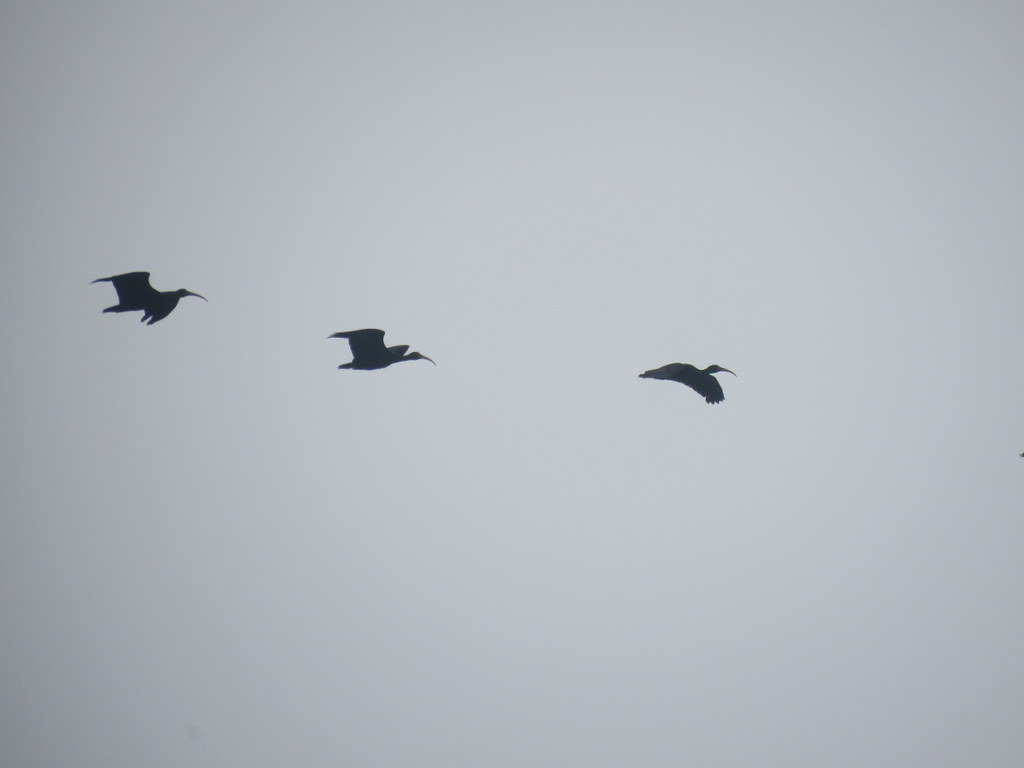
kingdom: Animalia
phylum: Chordata
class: Aves
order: Pelecaniformes
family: Threskiornithidae
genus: Phimosus
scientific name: Phimosus infuscatus
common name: Bare-faced ibis
